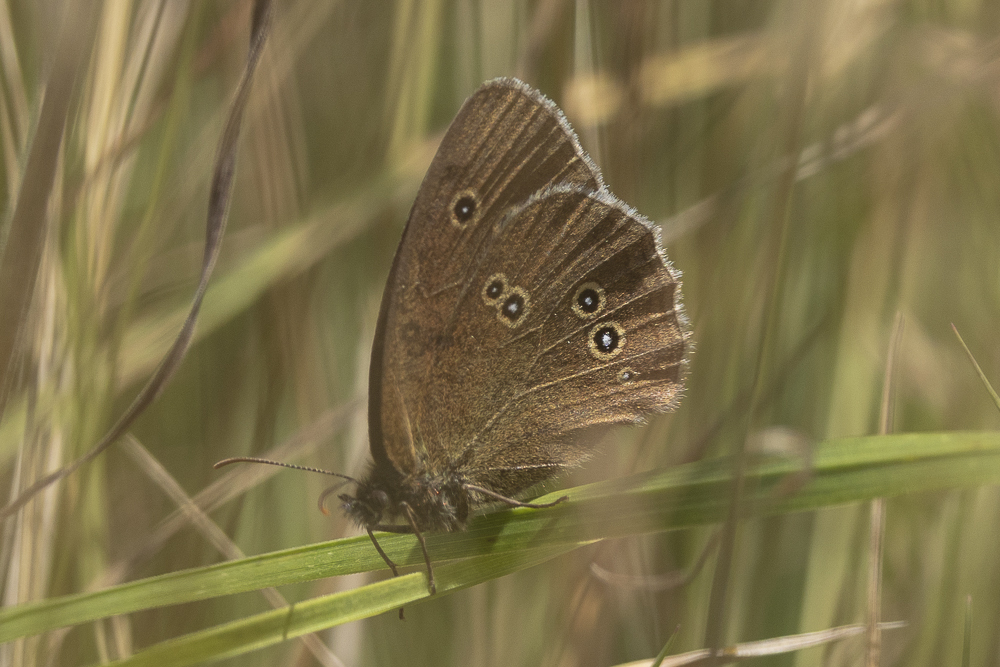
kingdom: Animalia
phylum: Arthropoda
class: Insecta
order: Lepidoptera
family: Nymphalidae
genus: Aphantopus
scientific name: Aphantopus hyperantus
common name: Ringlet
